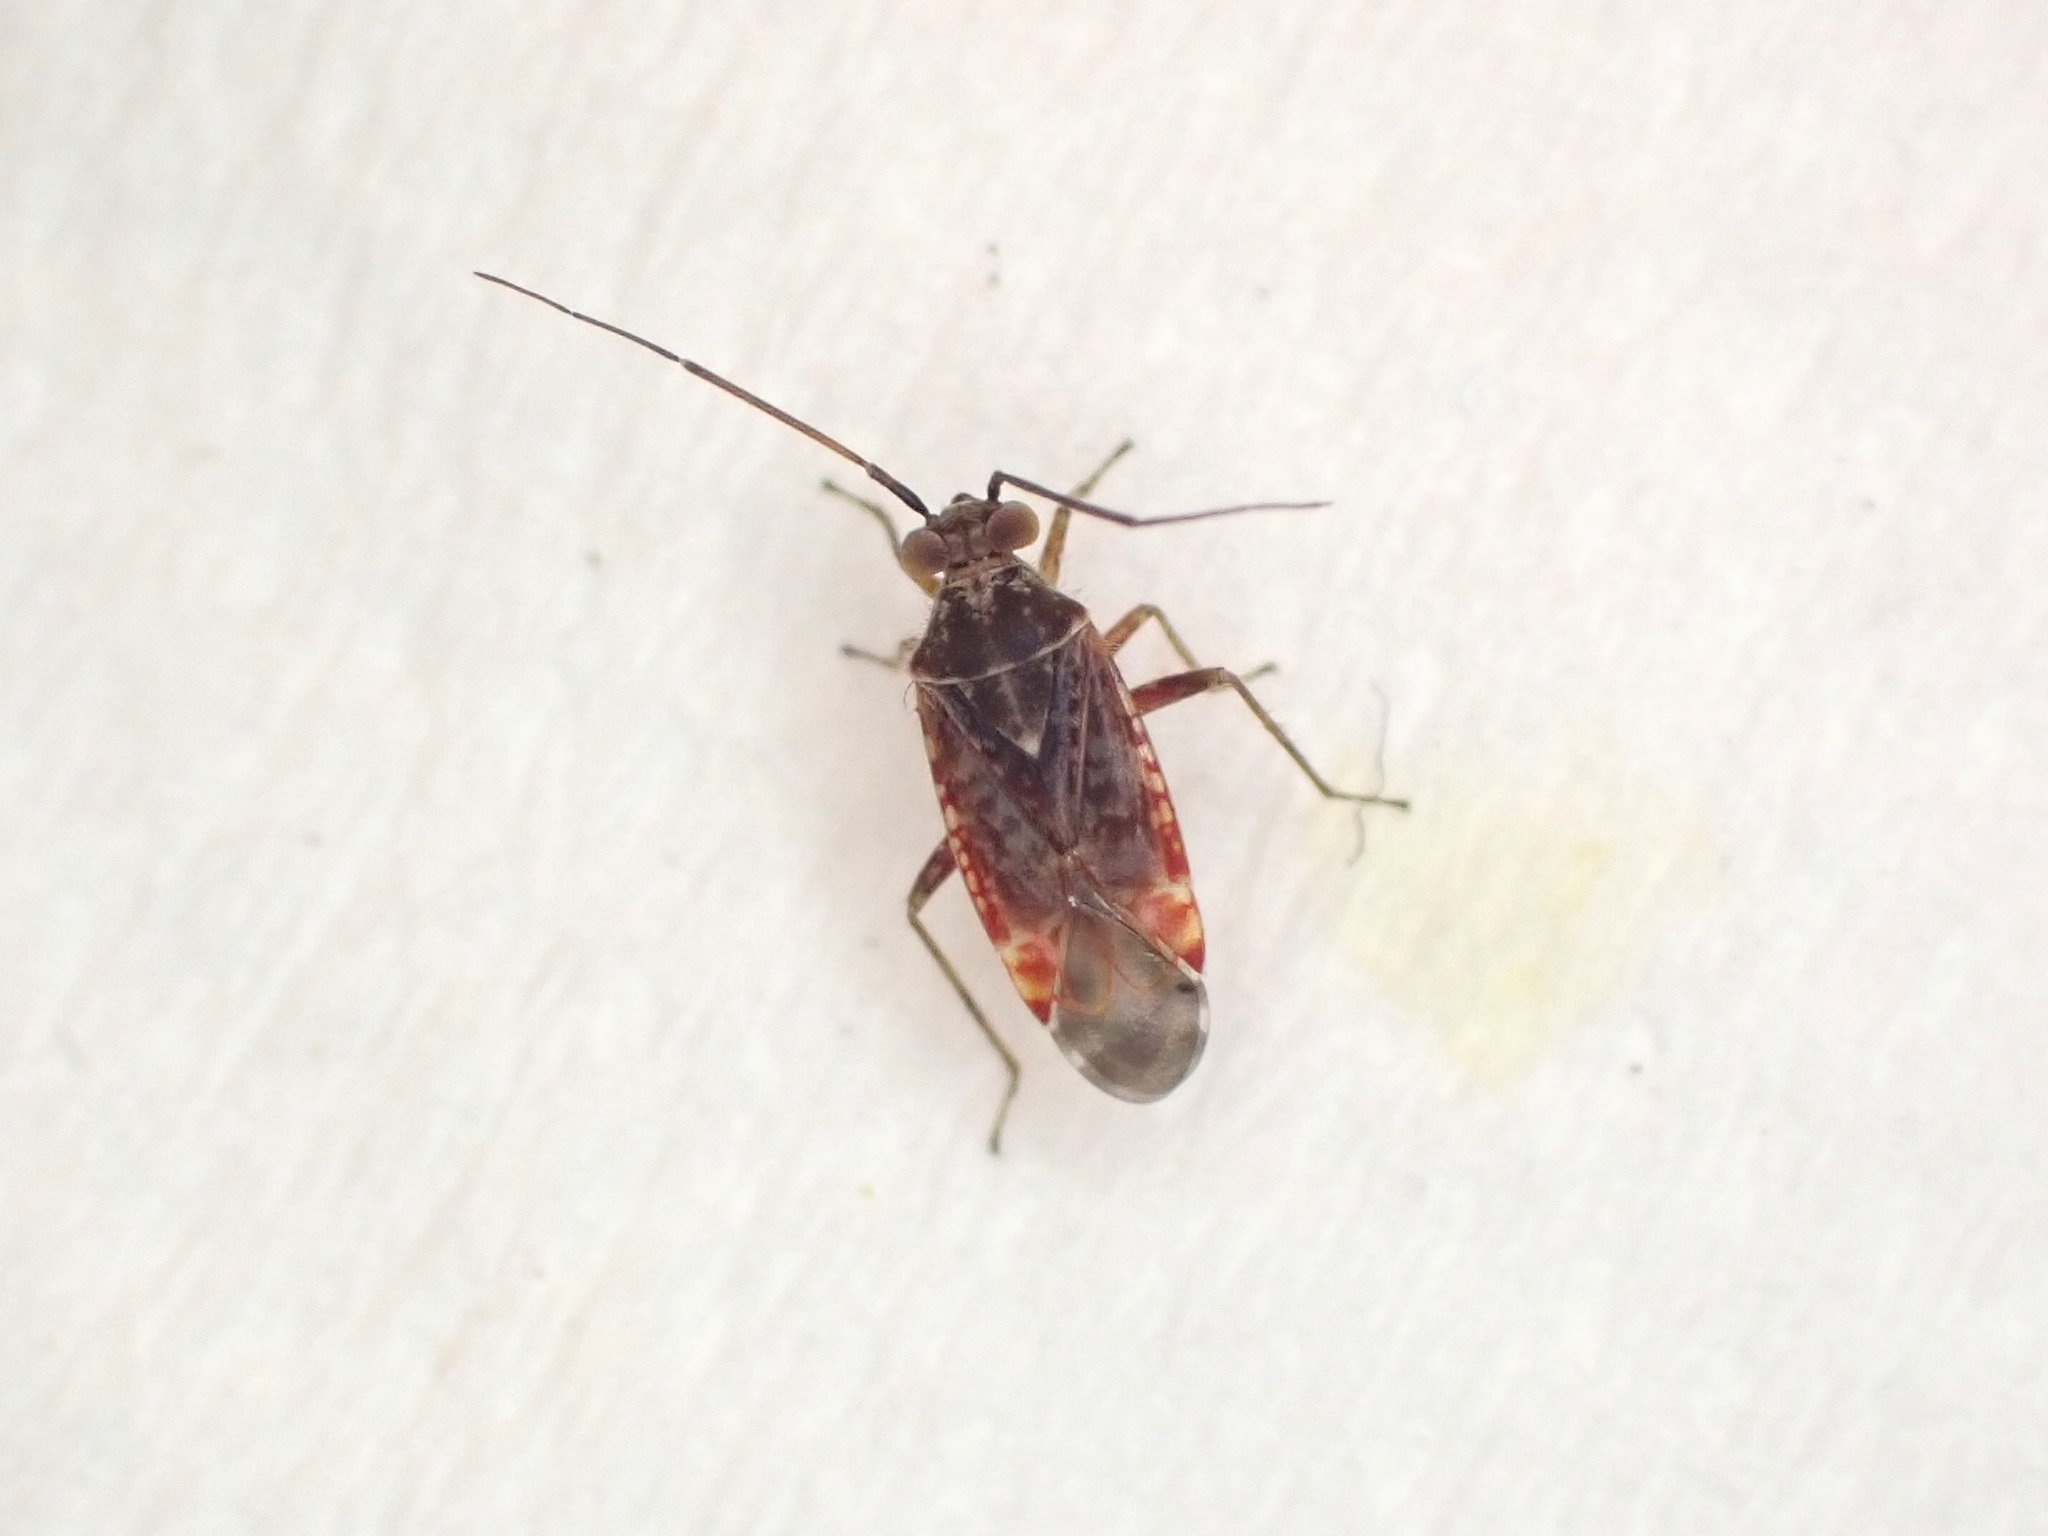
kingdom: Animalia
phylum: Arthropoda
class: Insecta
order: Hemiptera
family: Miridae
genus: Tinginotum
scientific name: Tinginotum minutum
